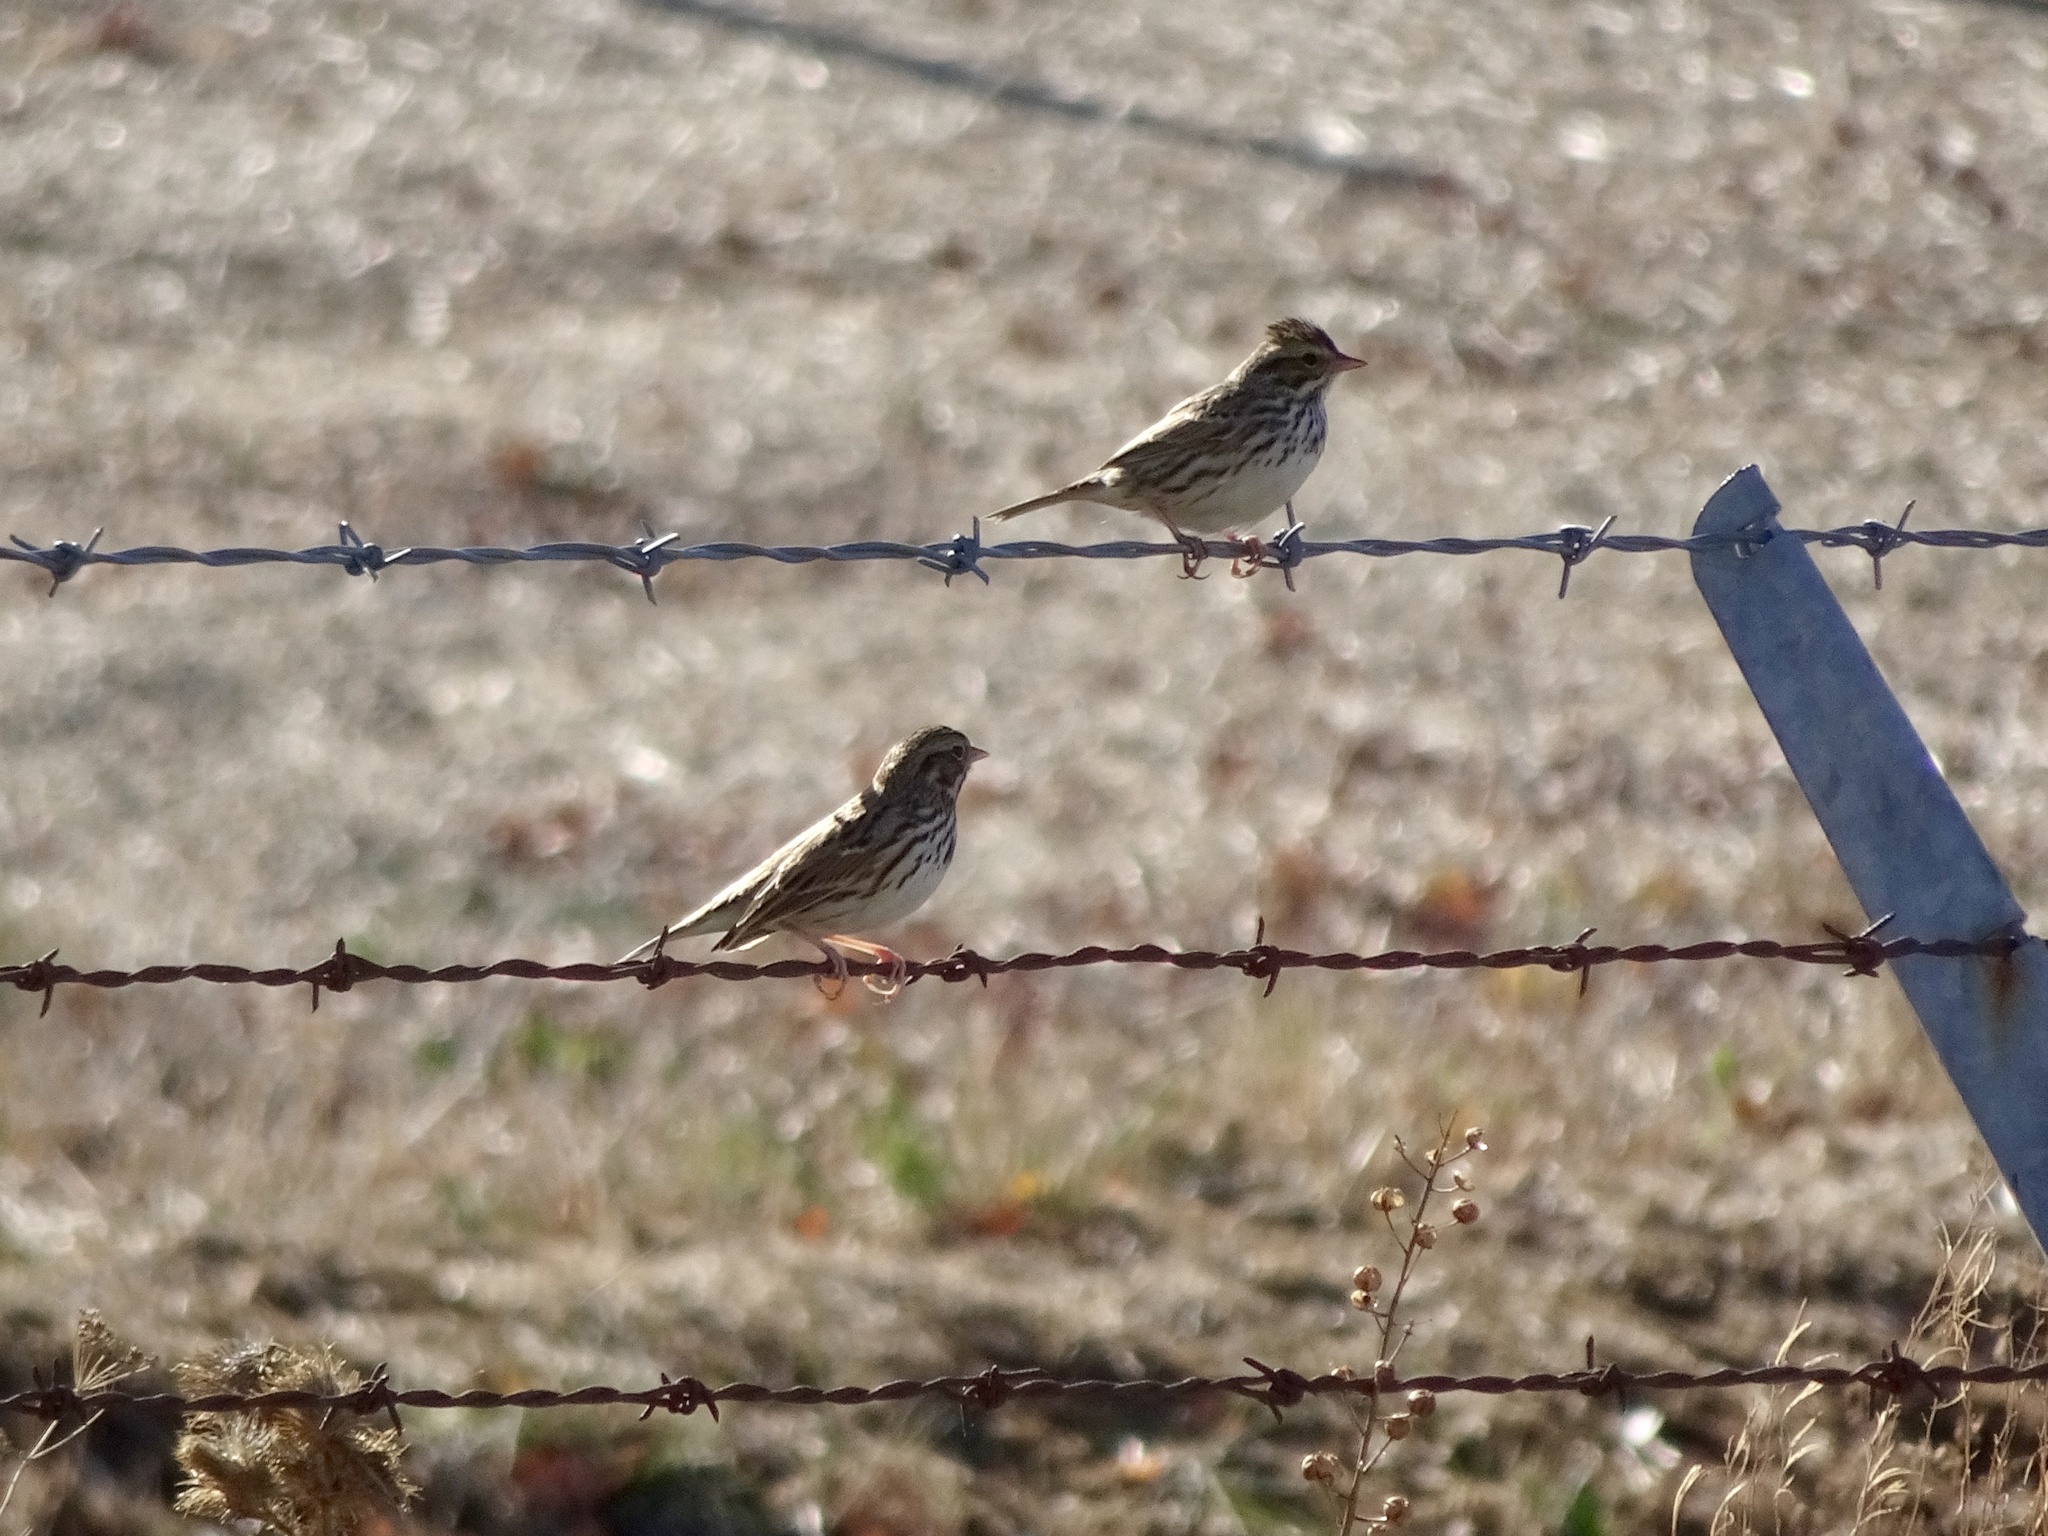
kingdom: Animalia
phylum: Chordata
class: Aves
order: Passeriformes
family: Passerellidae
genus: Passerculus
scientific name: Passerculus sandwichensis
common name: Savannah sparrow
